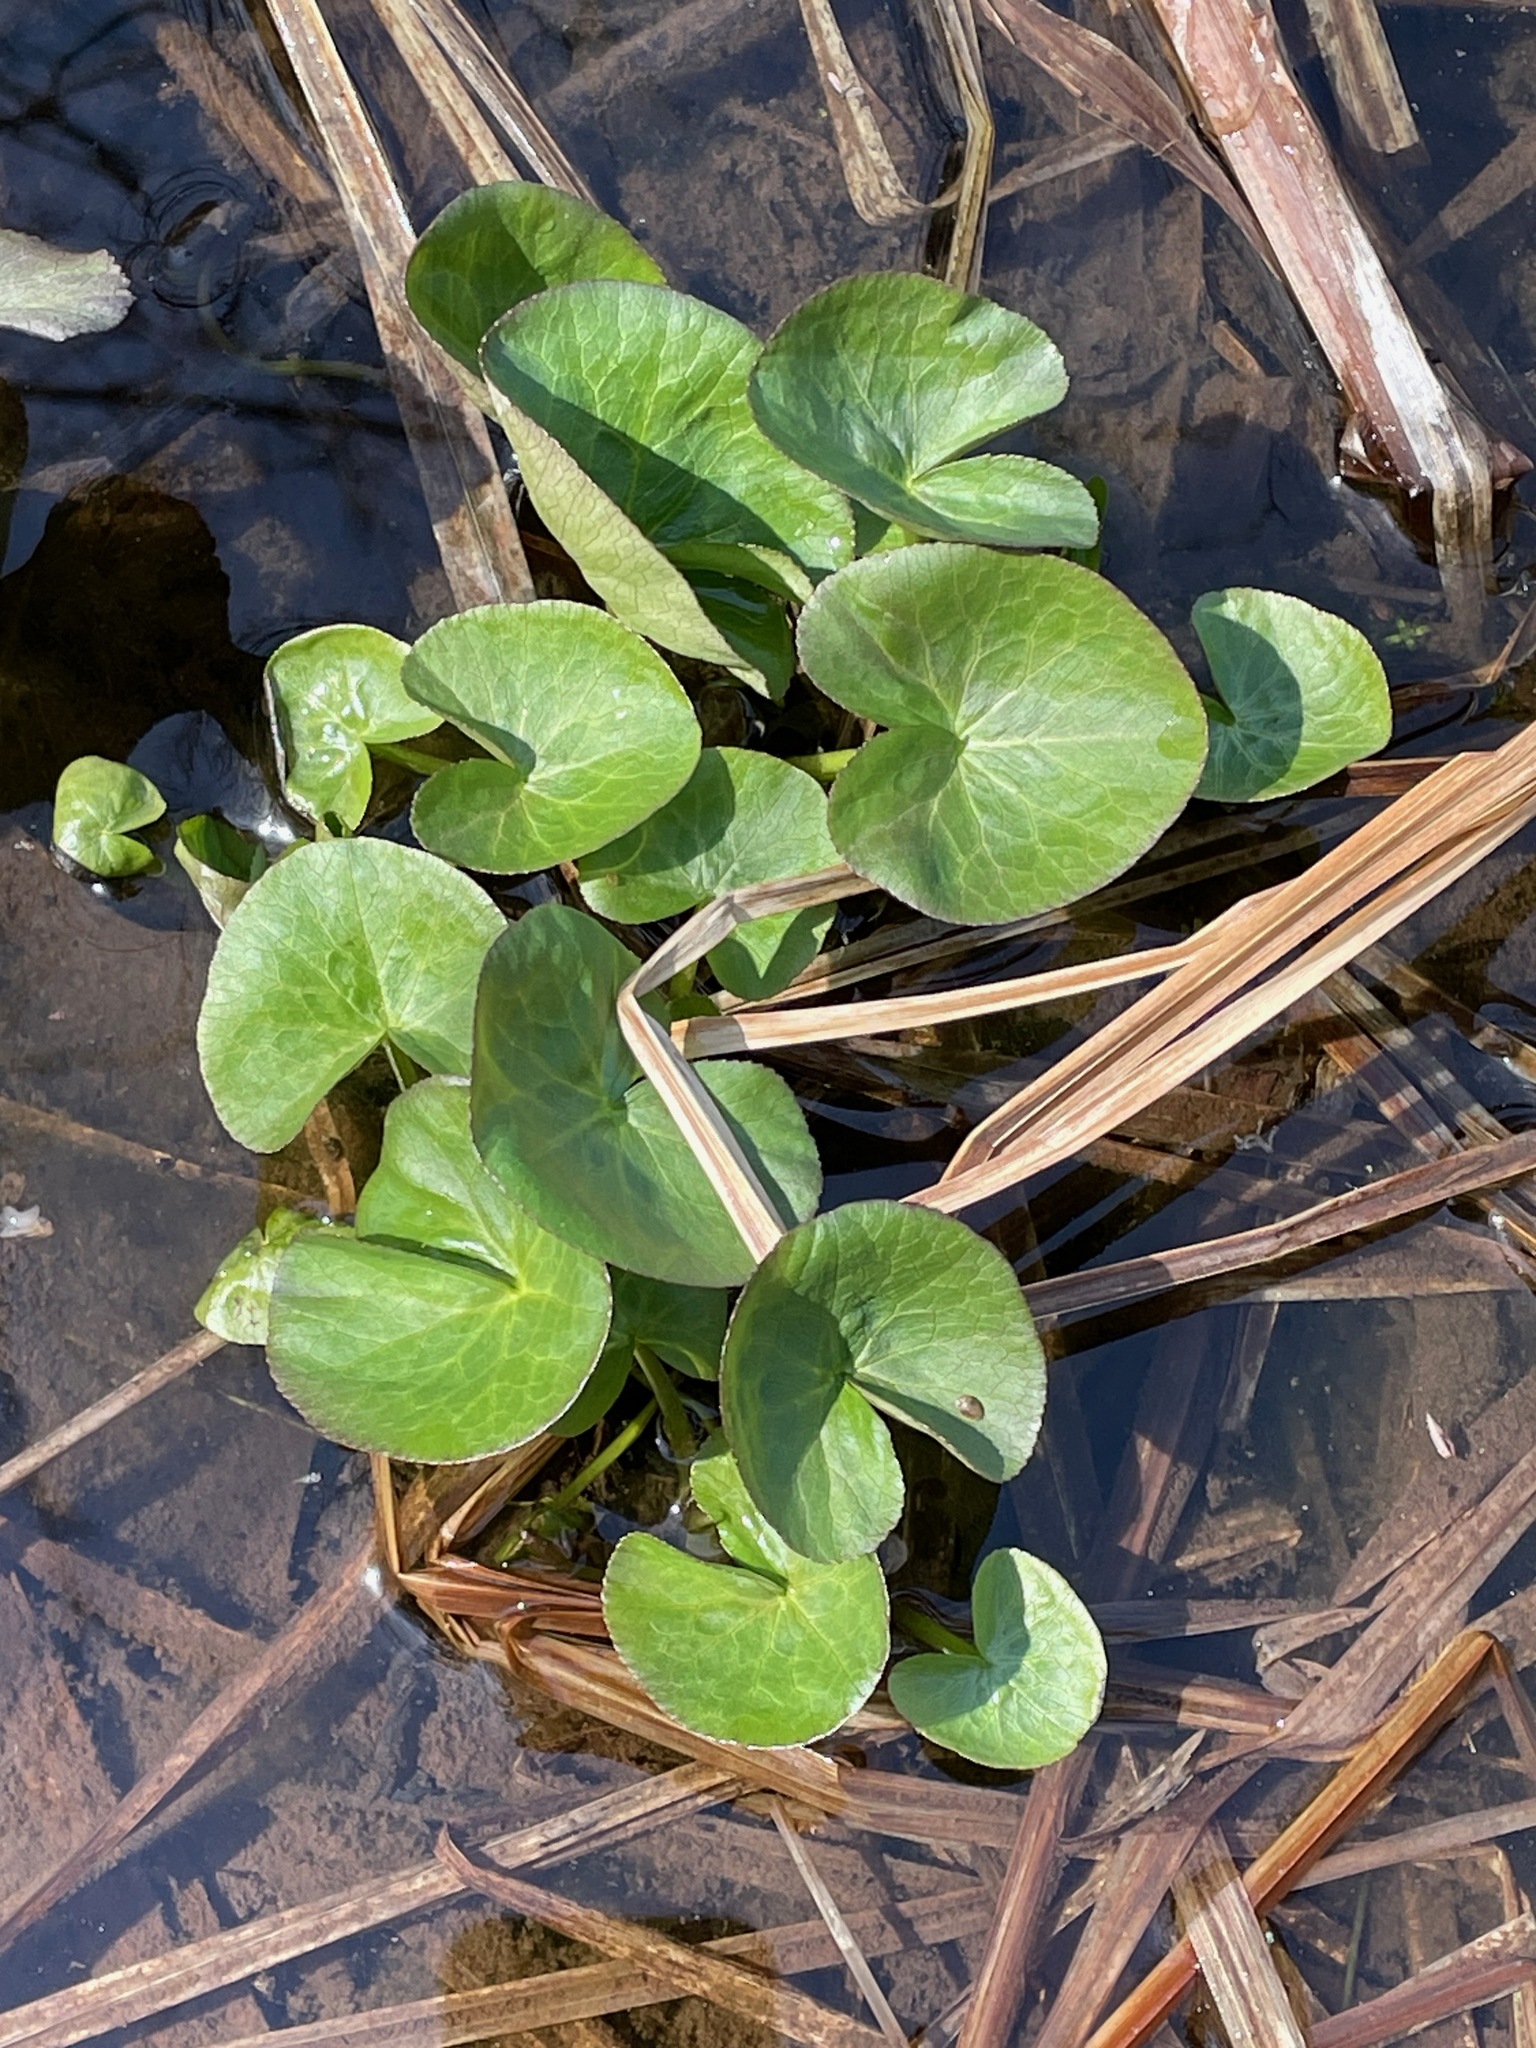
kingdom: Plantae
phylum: Tracheophyta
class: Magnoliopsida
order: Ranunculales
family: Ranunculaceae
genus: Caltha
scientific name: Caltha palustris
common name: Marsh marigold
